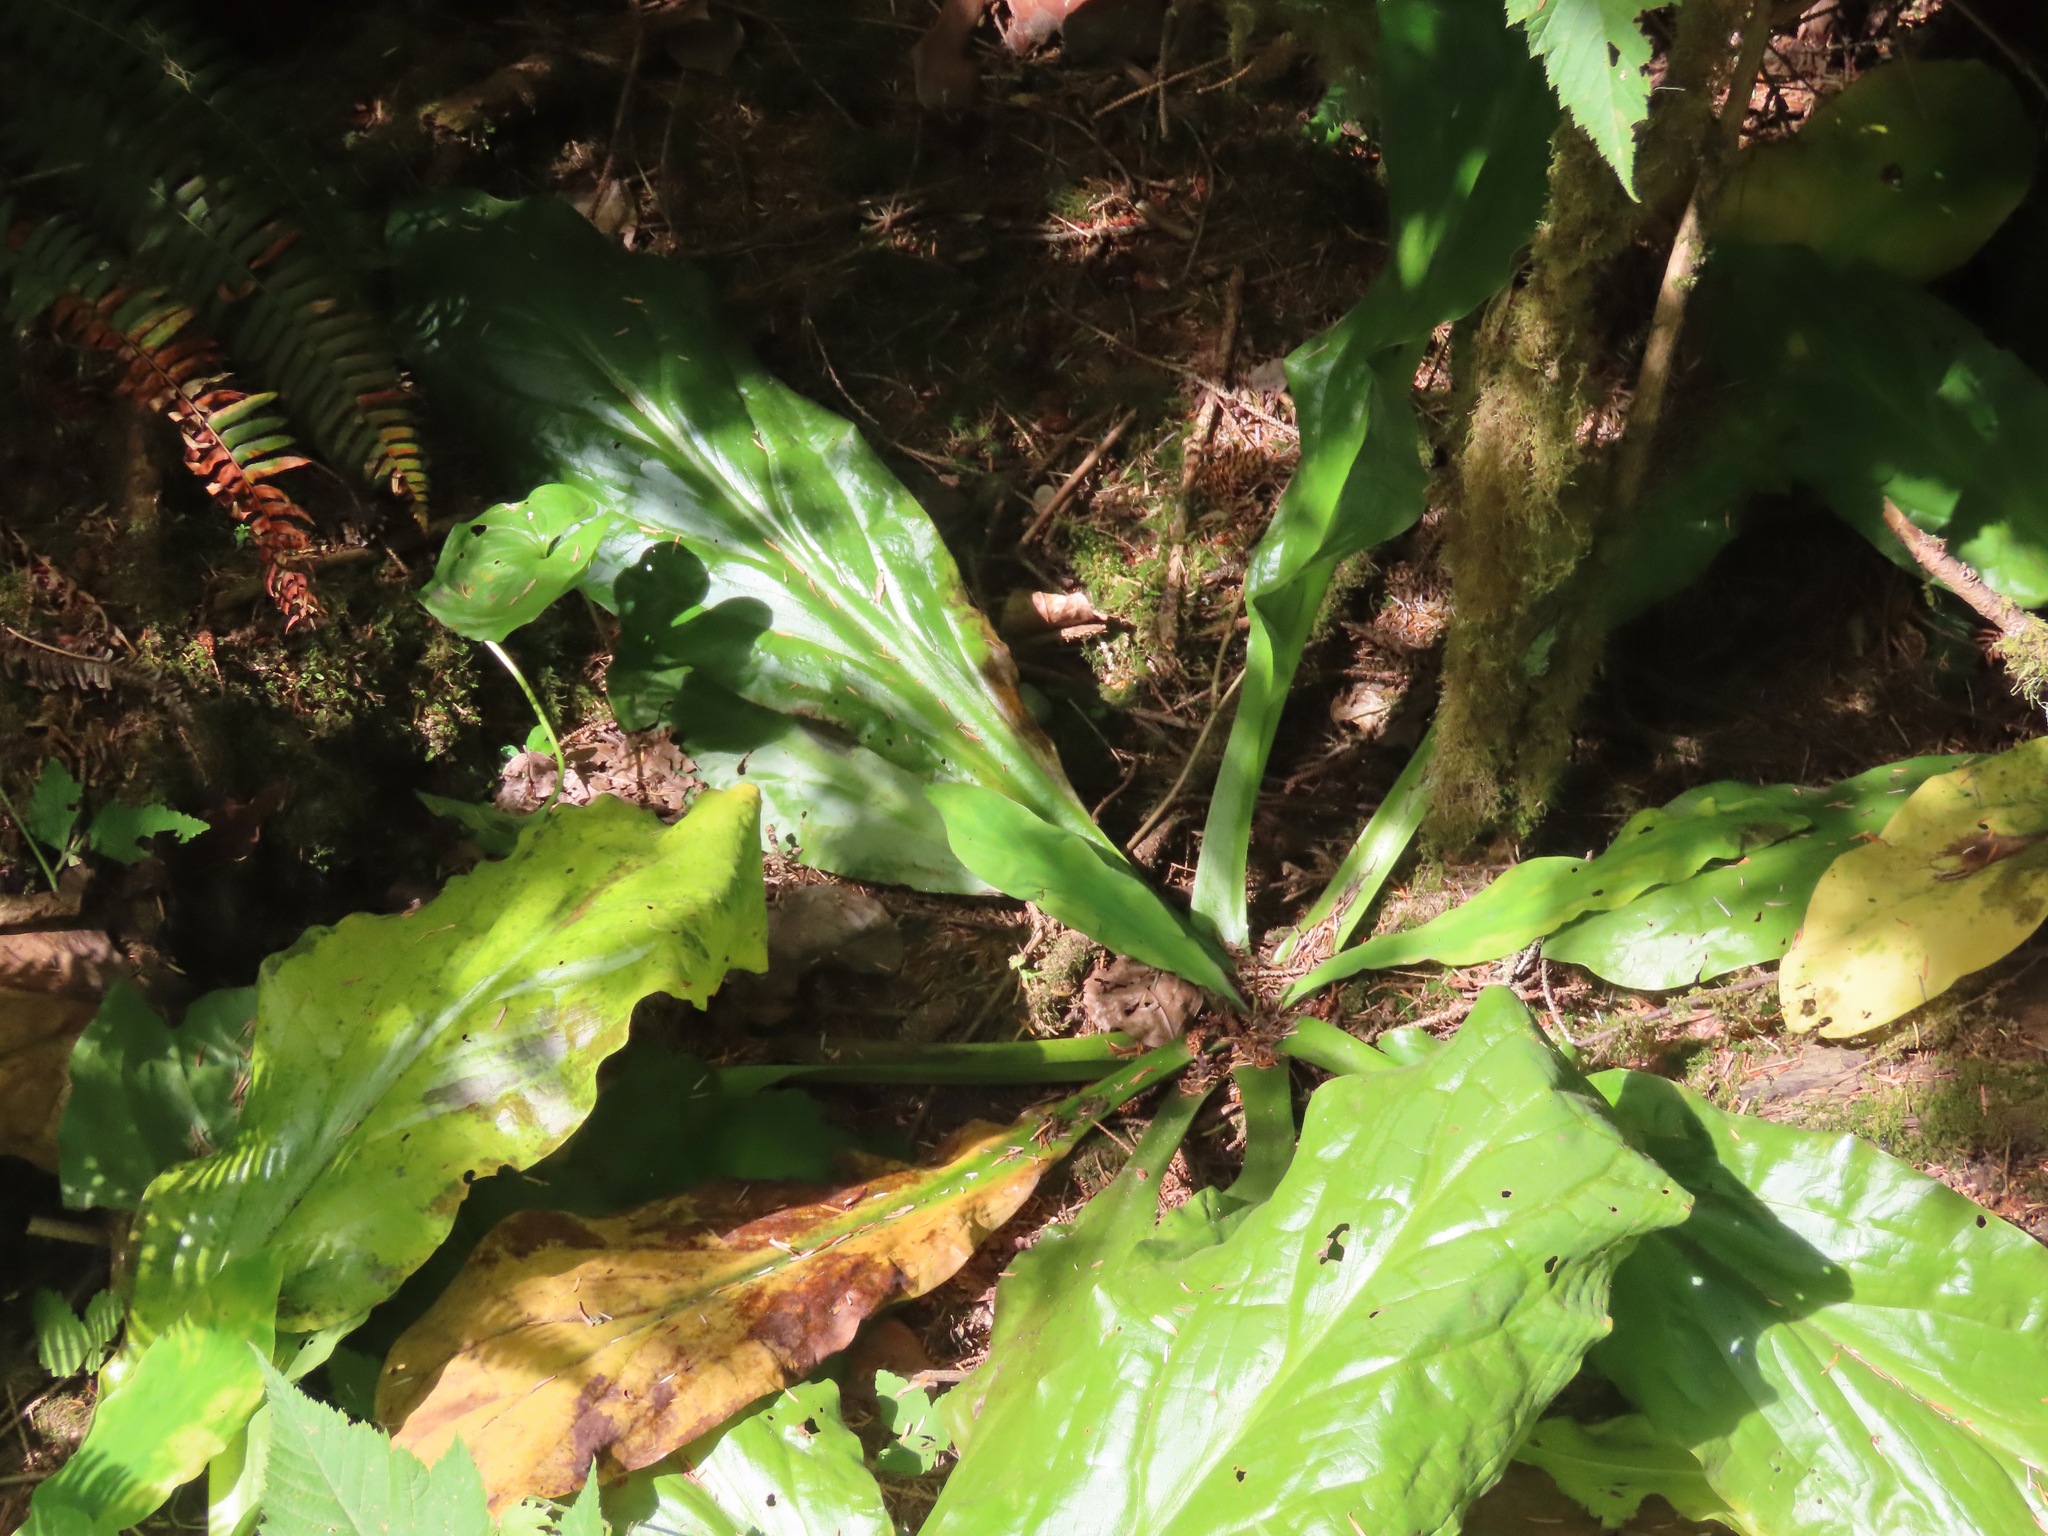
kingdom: Plantae
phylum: Tracheophyta
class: Liliopsida
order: Alismatales
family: Araceae
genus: Lysichiton
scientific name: Lysichiton americanus
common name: American skunk cabbage
